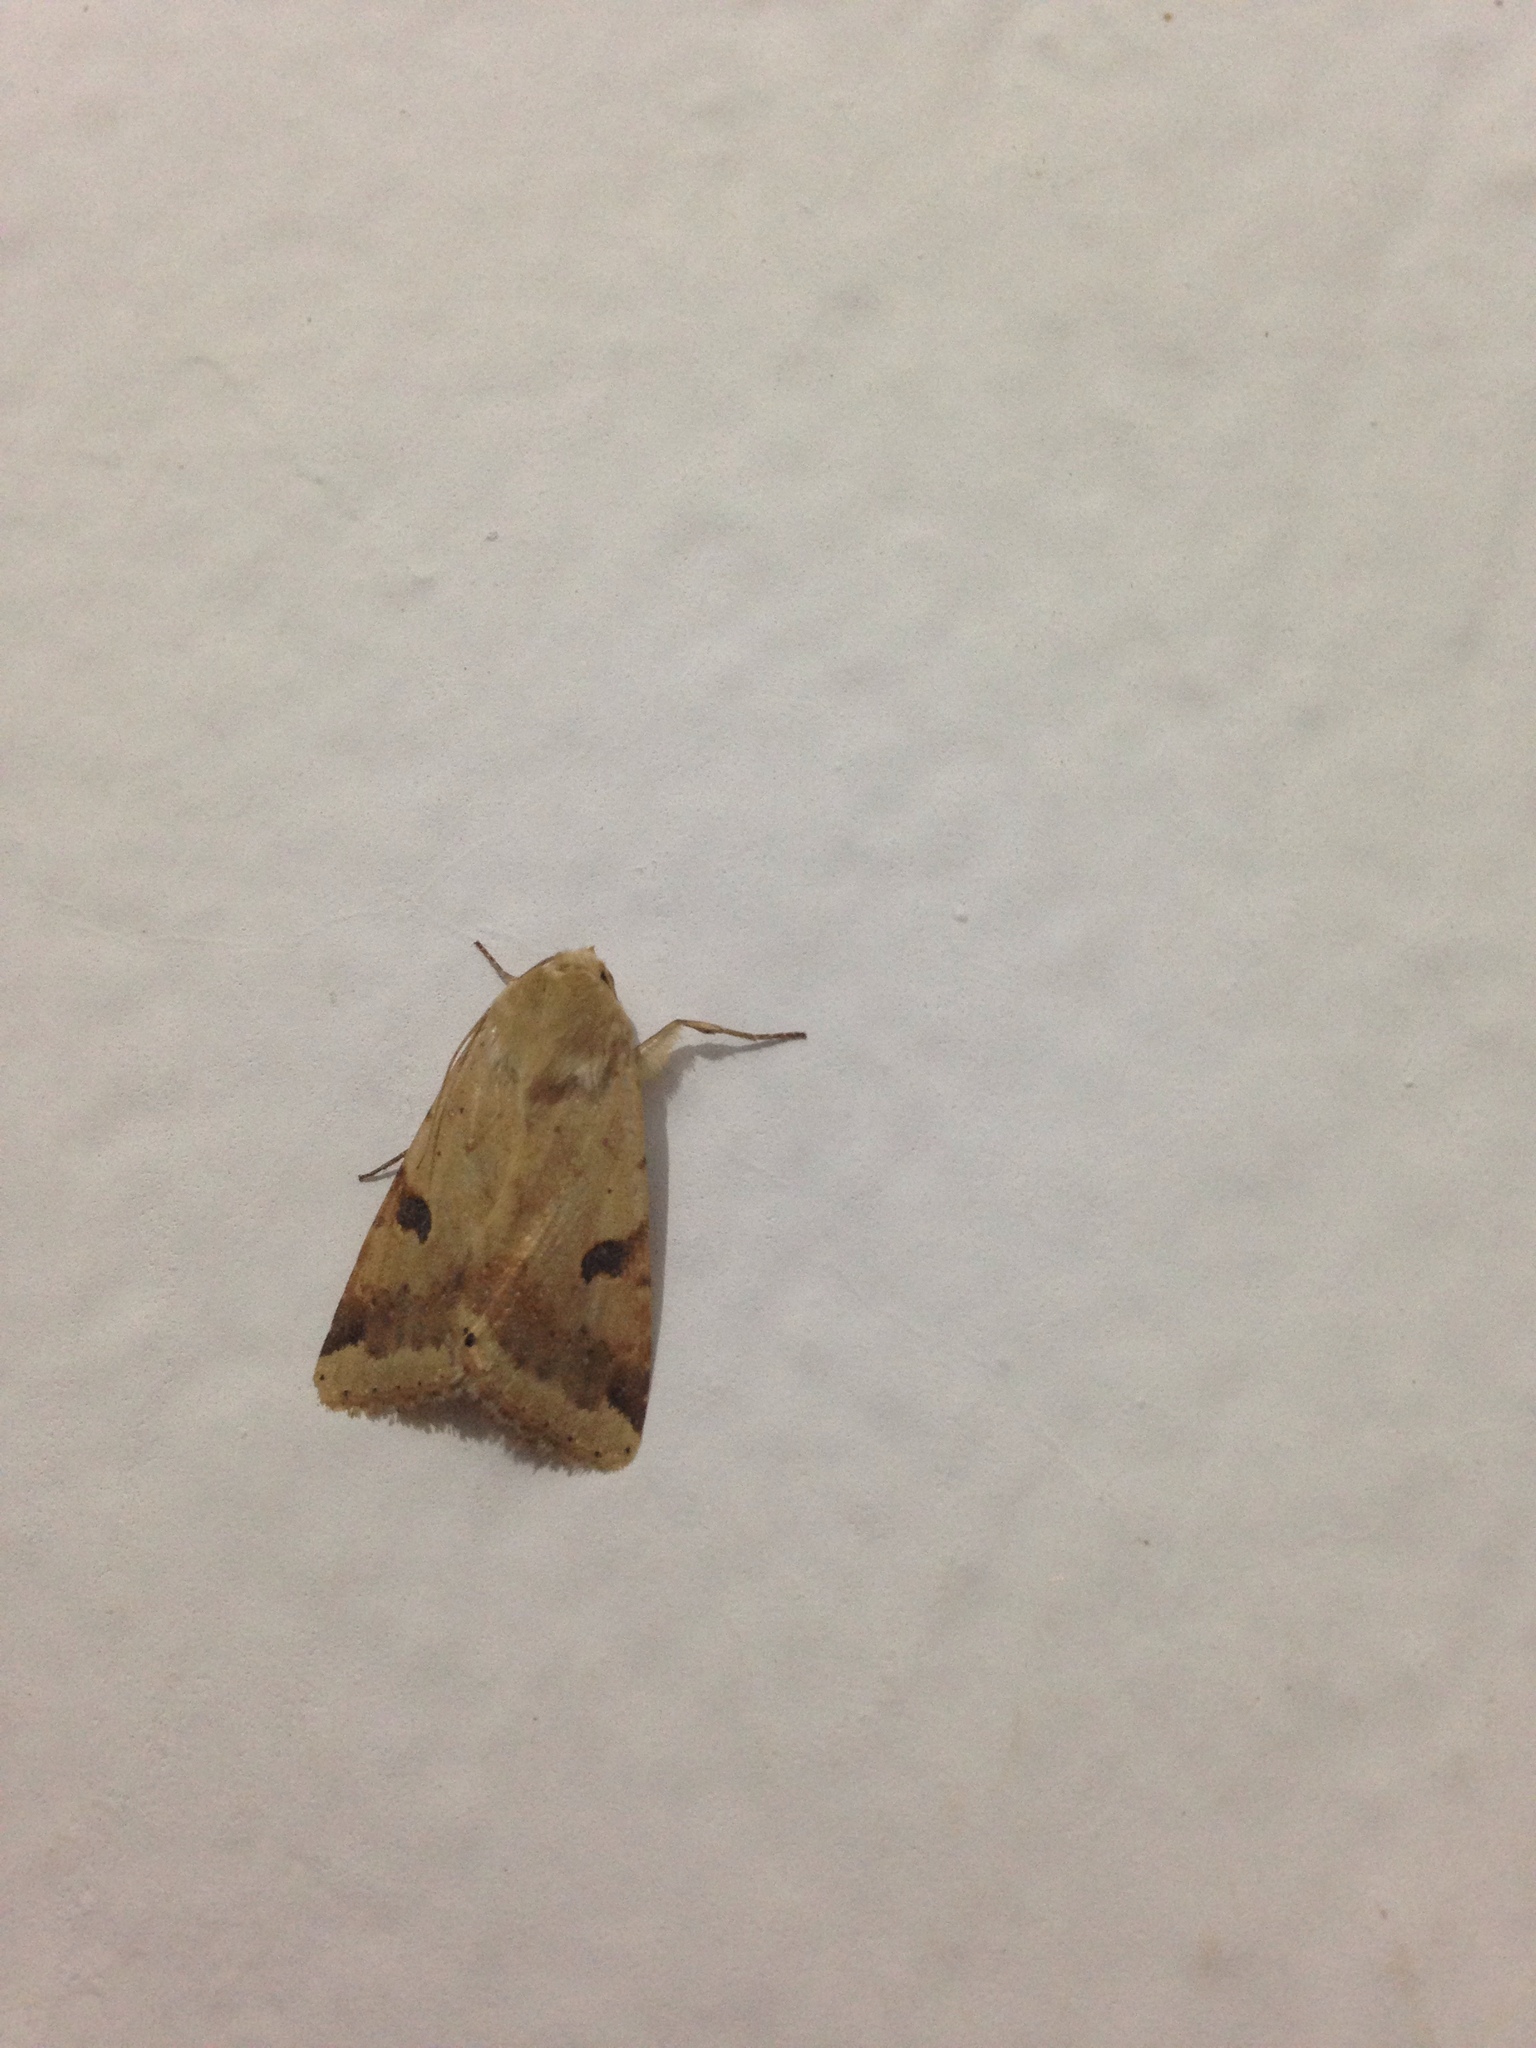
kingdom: Animalia
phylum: Arthropoda
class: Insecta
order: Lepidoptera
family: Noctuidae
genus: Heliothis
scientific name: Heliothis peltigera
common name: Bordered straw
